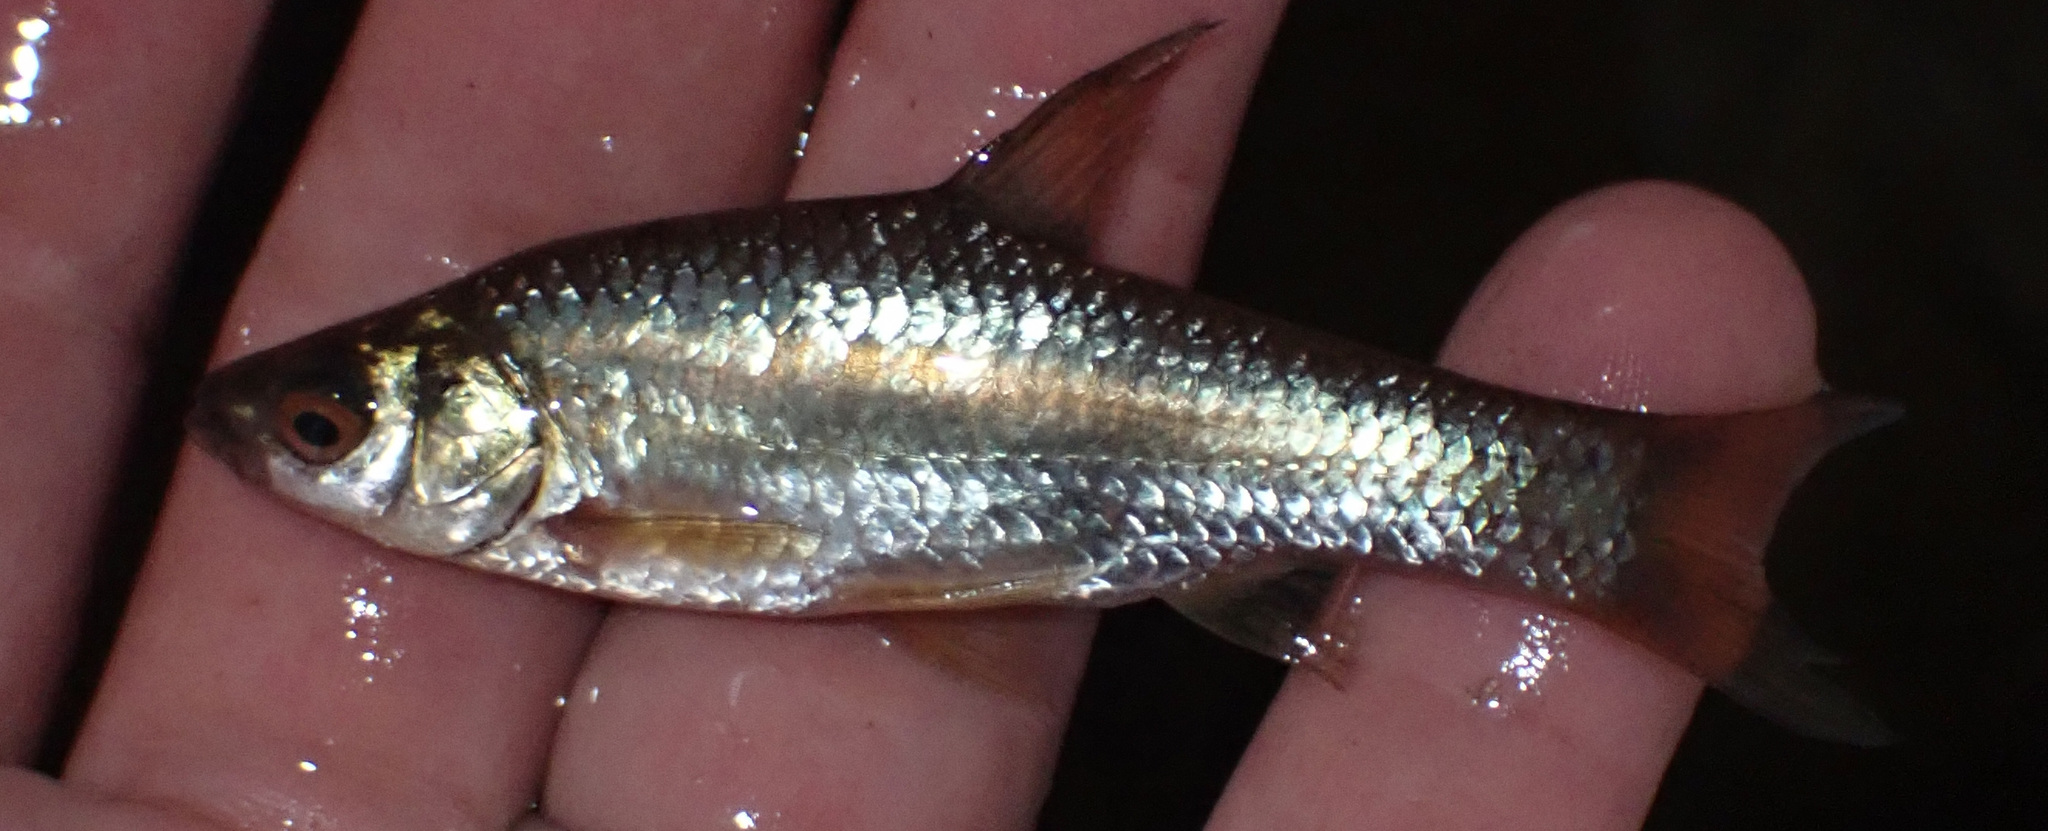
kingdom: Animalia
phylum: Chordata
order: Cypriniformes
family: Cyprinidae
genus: Enteromius
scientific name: Enteromius paludinosus
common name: Straightfin barb
